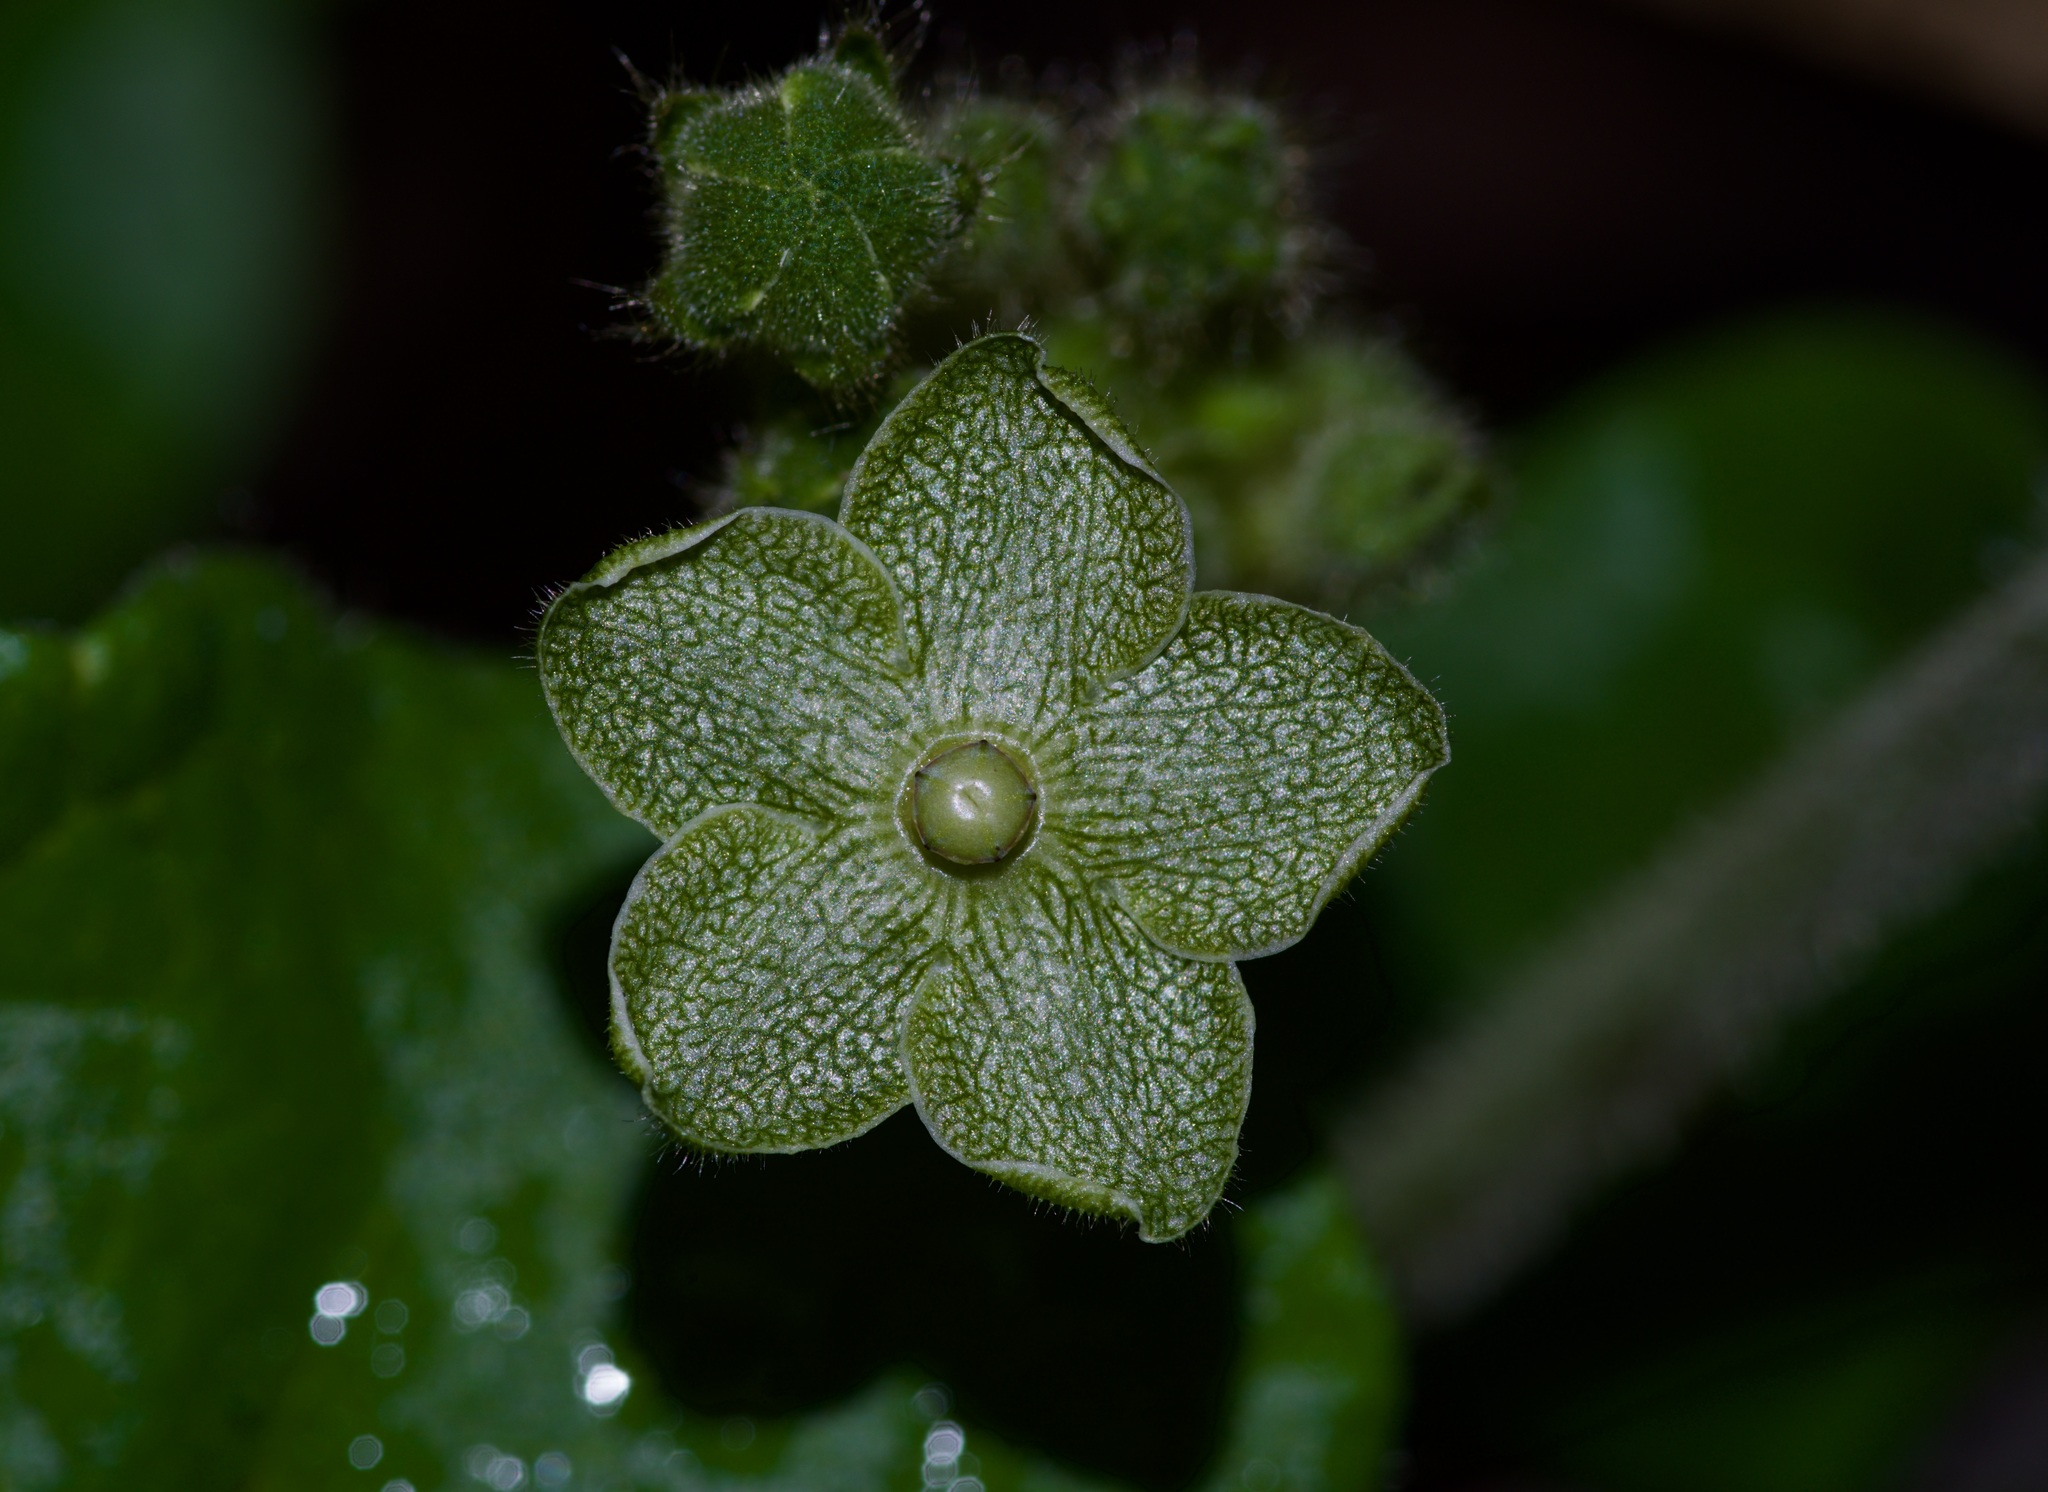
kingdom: Plantae
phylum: Tracheophyta
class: Magnoliopsida
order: Gentianales
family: Apocynaceae
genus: Dictyanthus
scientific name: Dictyanthus reticulatus
